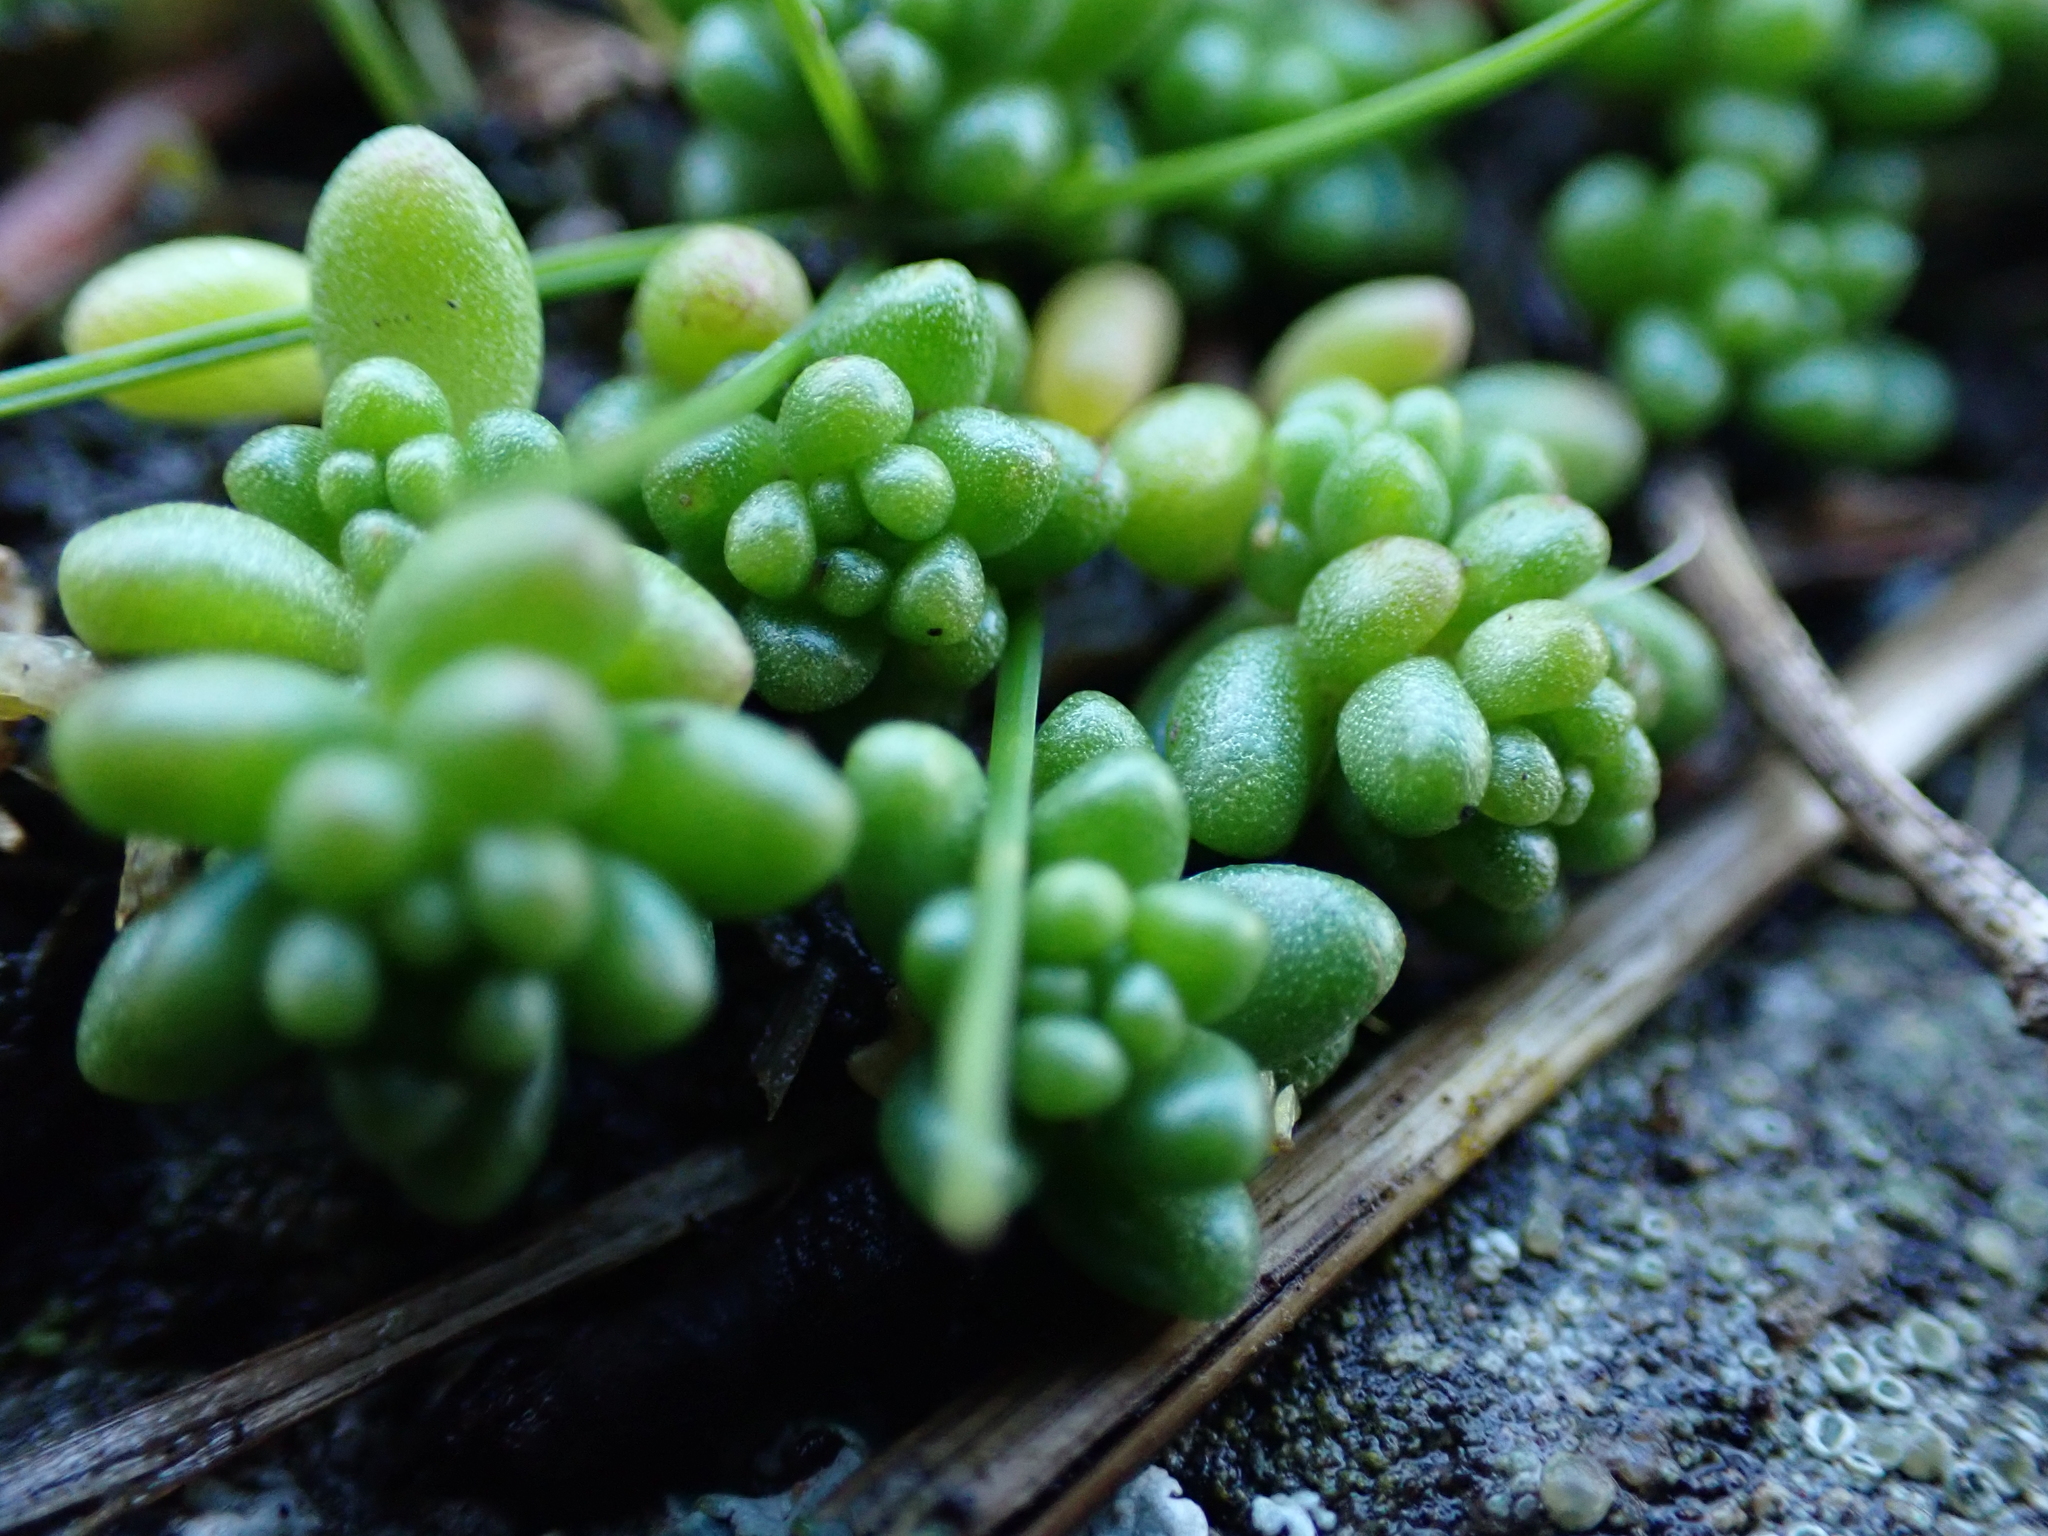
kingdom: Plantae
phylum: Tracheophyta
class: Magnoliopsida
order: Saxifragales
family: Crassulaceae
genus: Sedum
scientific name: Sedum album
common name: White stonecrop
